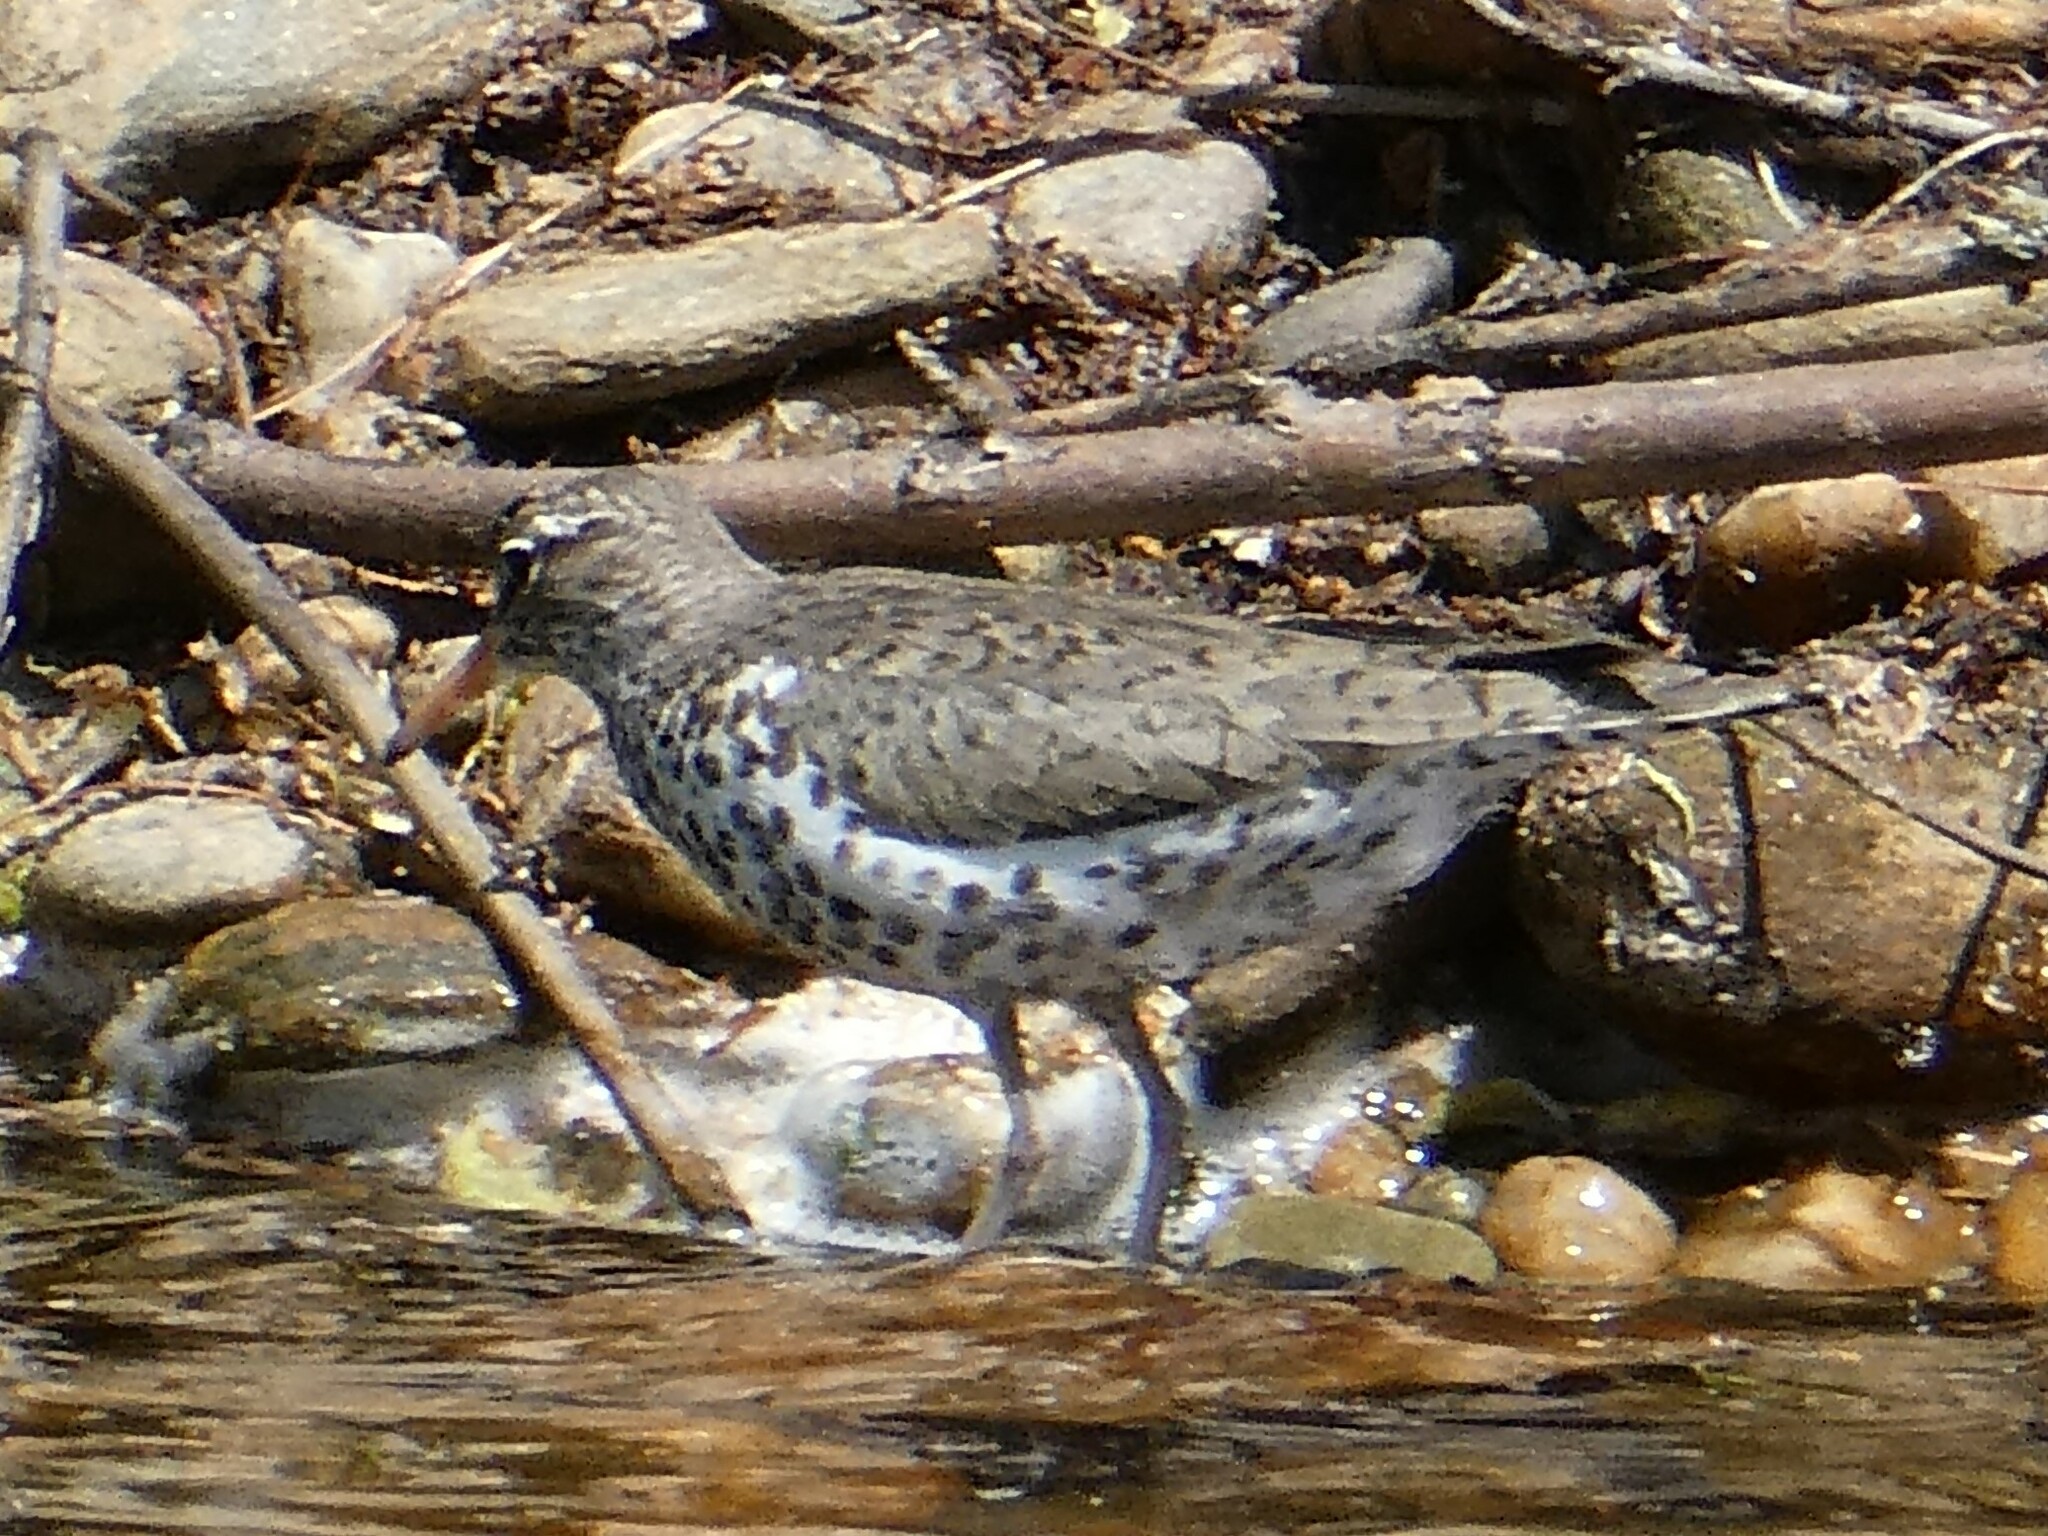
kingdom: Animalia
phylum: Chordata
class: Aves
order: Charadriiformes
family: Scolopacidae
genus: Actitis
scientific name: Actitis macularius
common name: Spotted sandpiper
